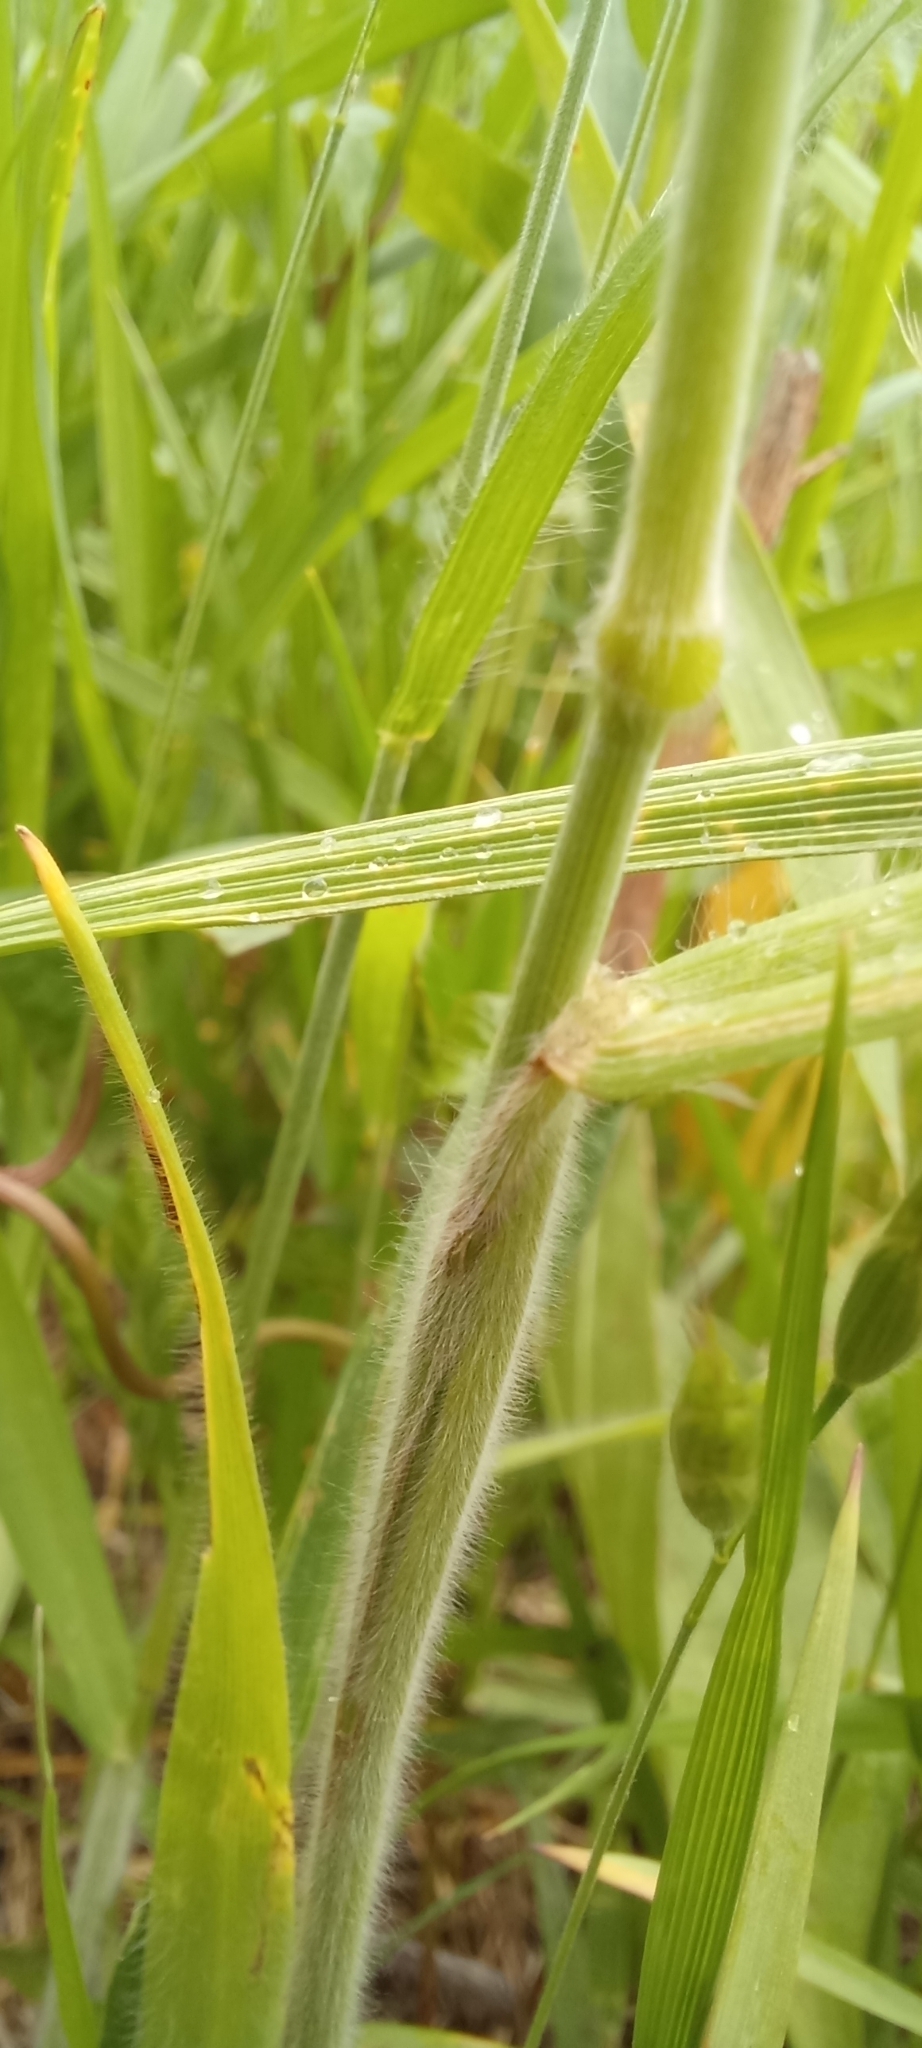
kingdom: Plantae
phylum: Tracheophyta
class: Liliopsida
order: Poales
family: Poaceae
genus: Bromus
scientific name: Bromus hordeaceus
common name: Soft brome
